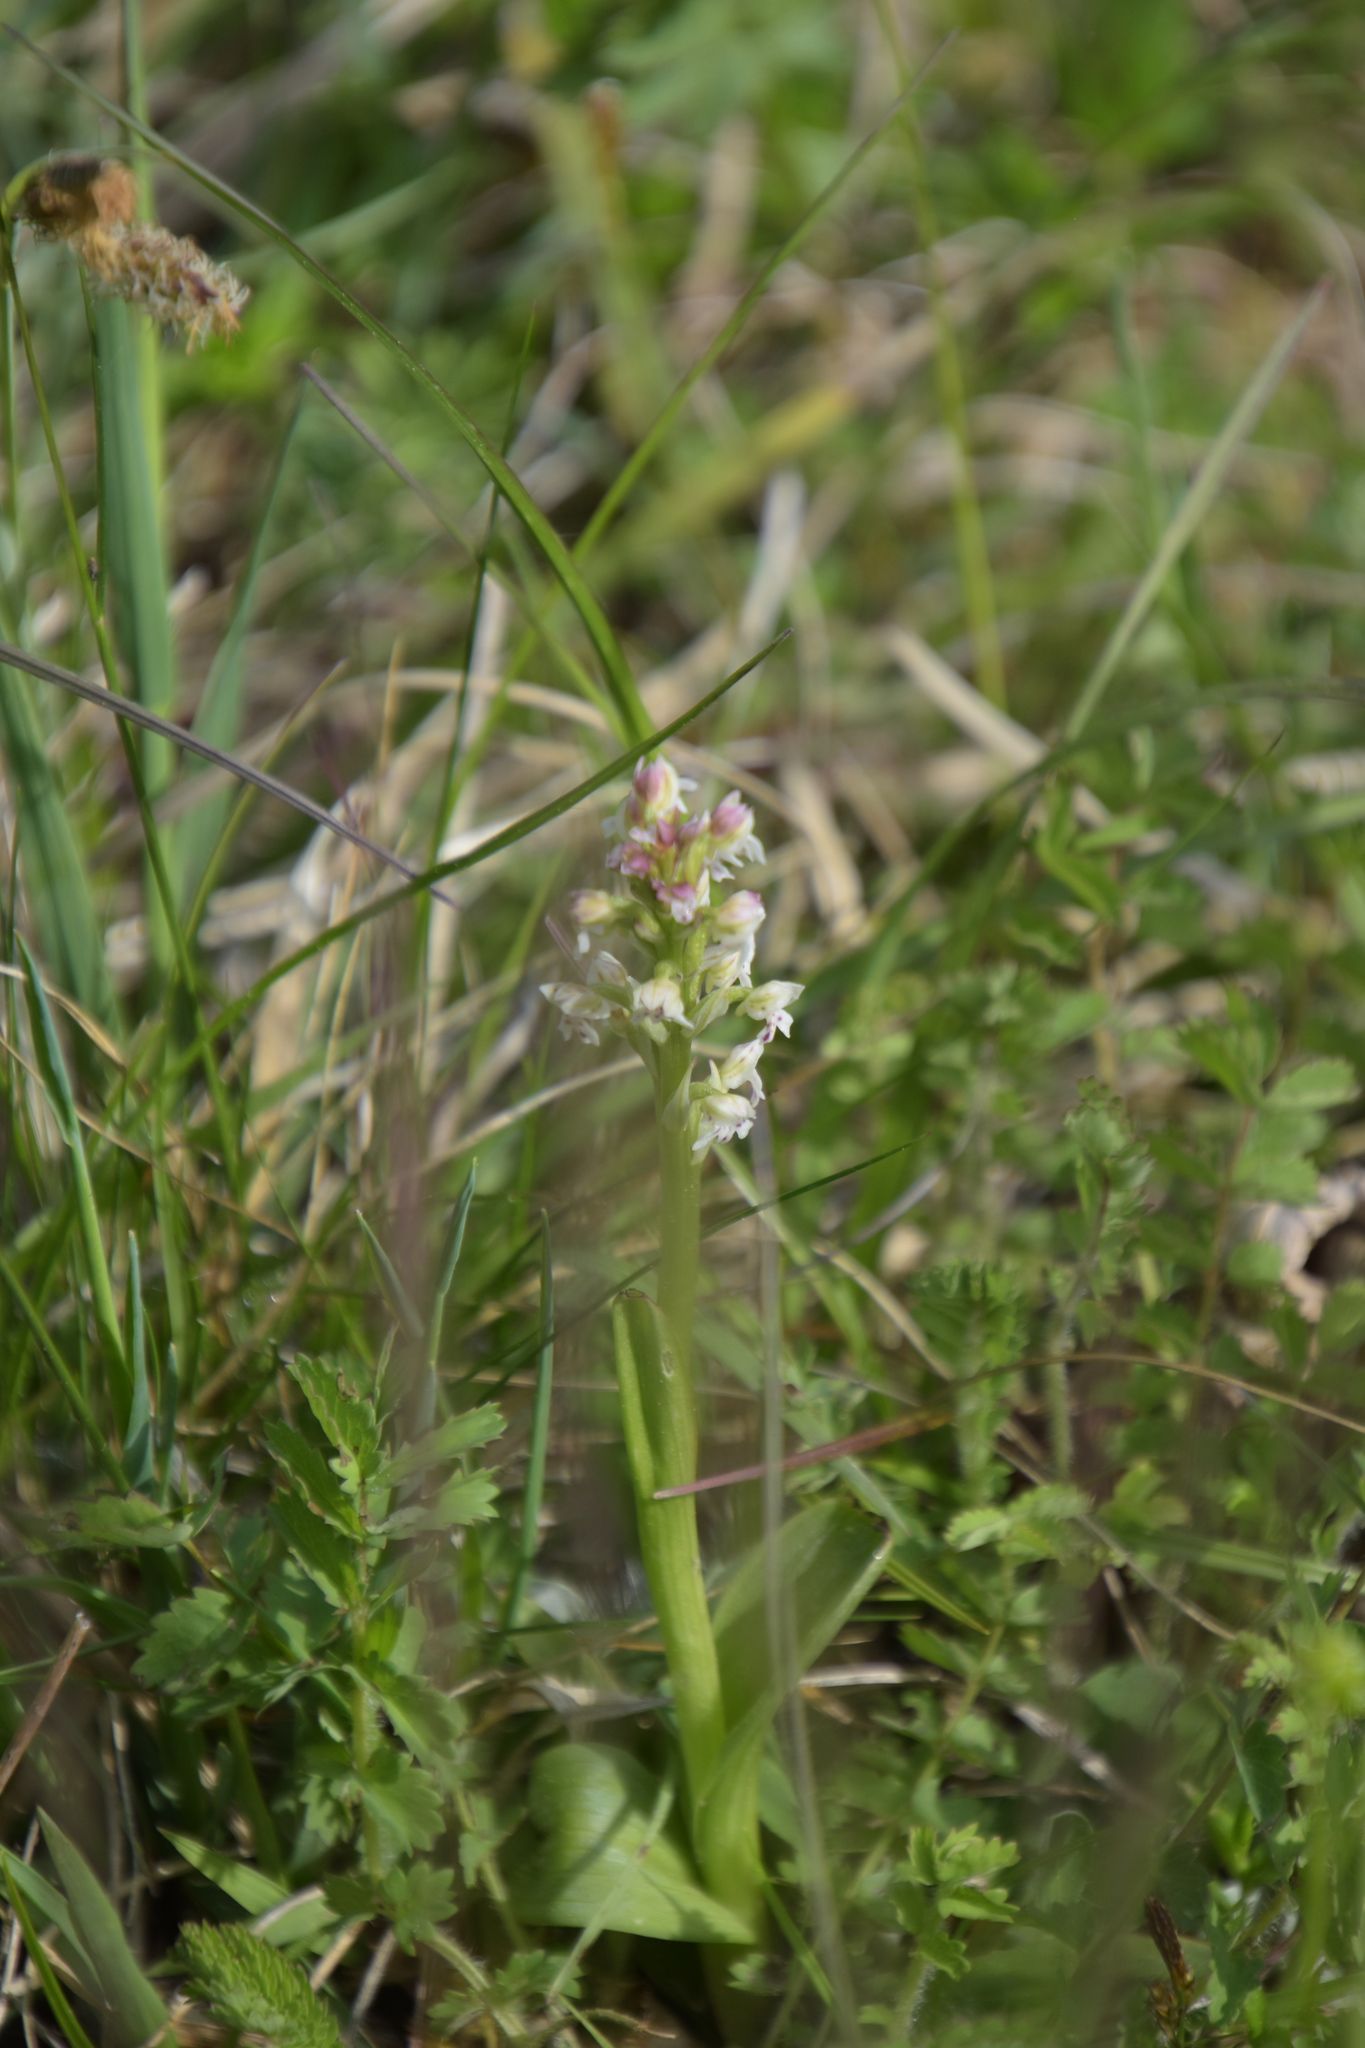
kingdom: Plantae
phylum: Tracheophyta
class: Liliopsida
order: Asparagales
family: Orchidaceae
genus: Neotinea
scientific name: Neotinea ustulata
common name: Burnt orchid
